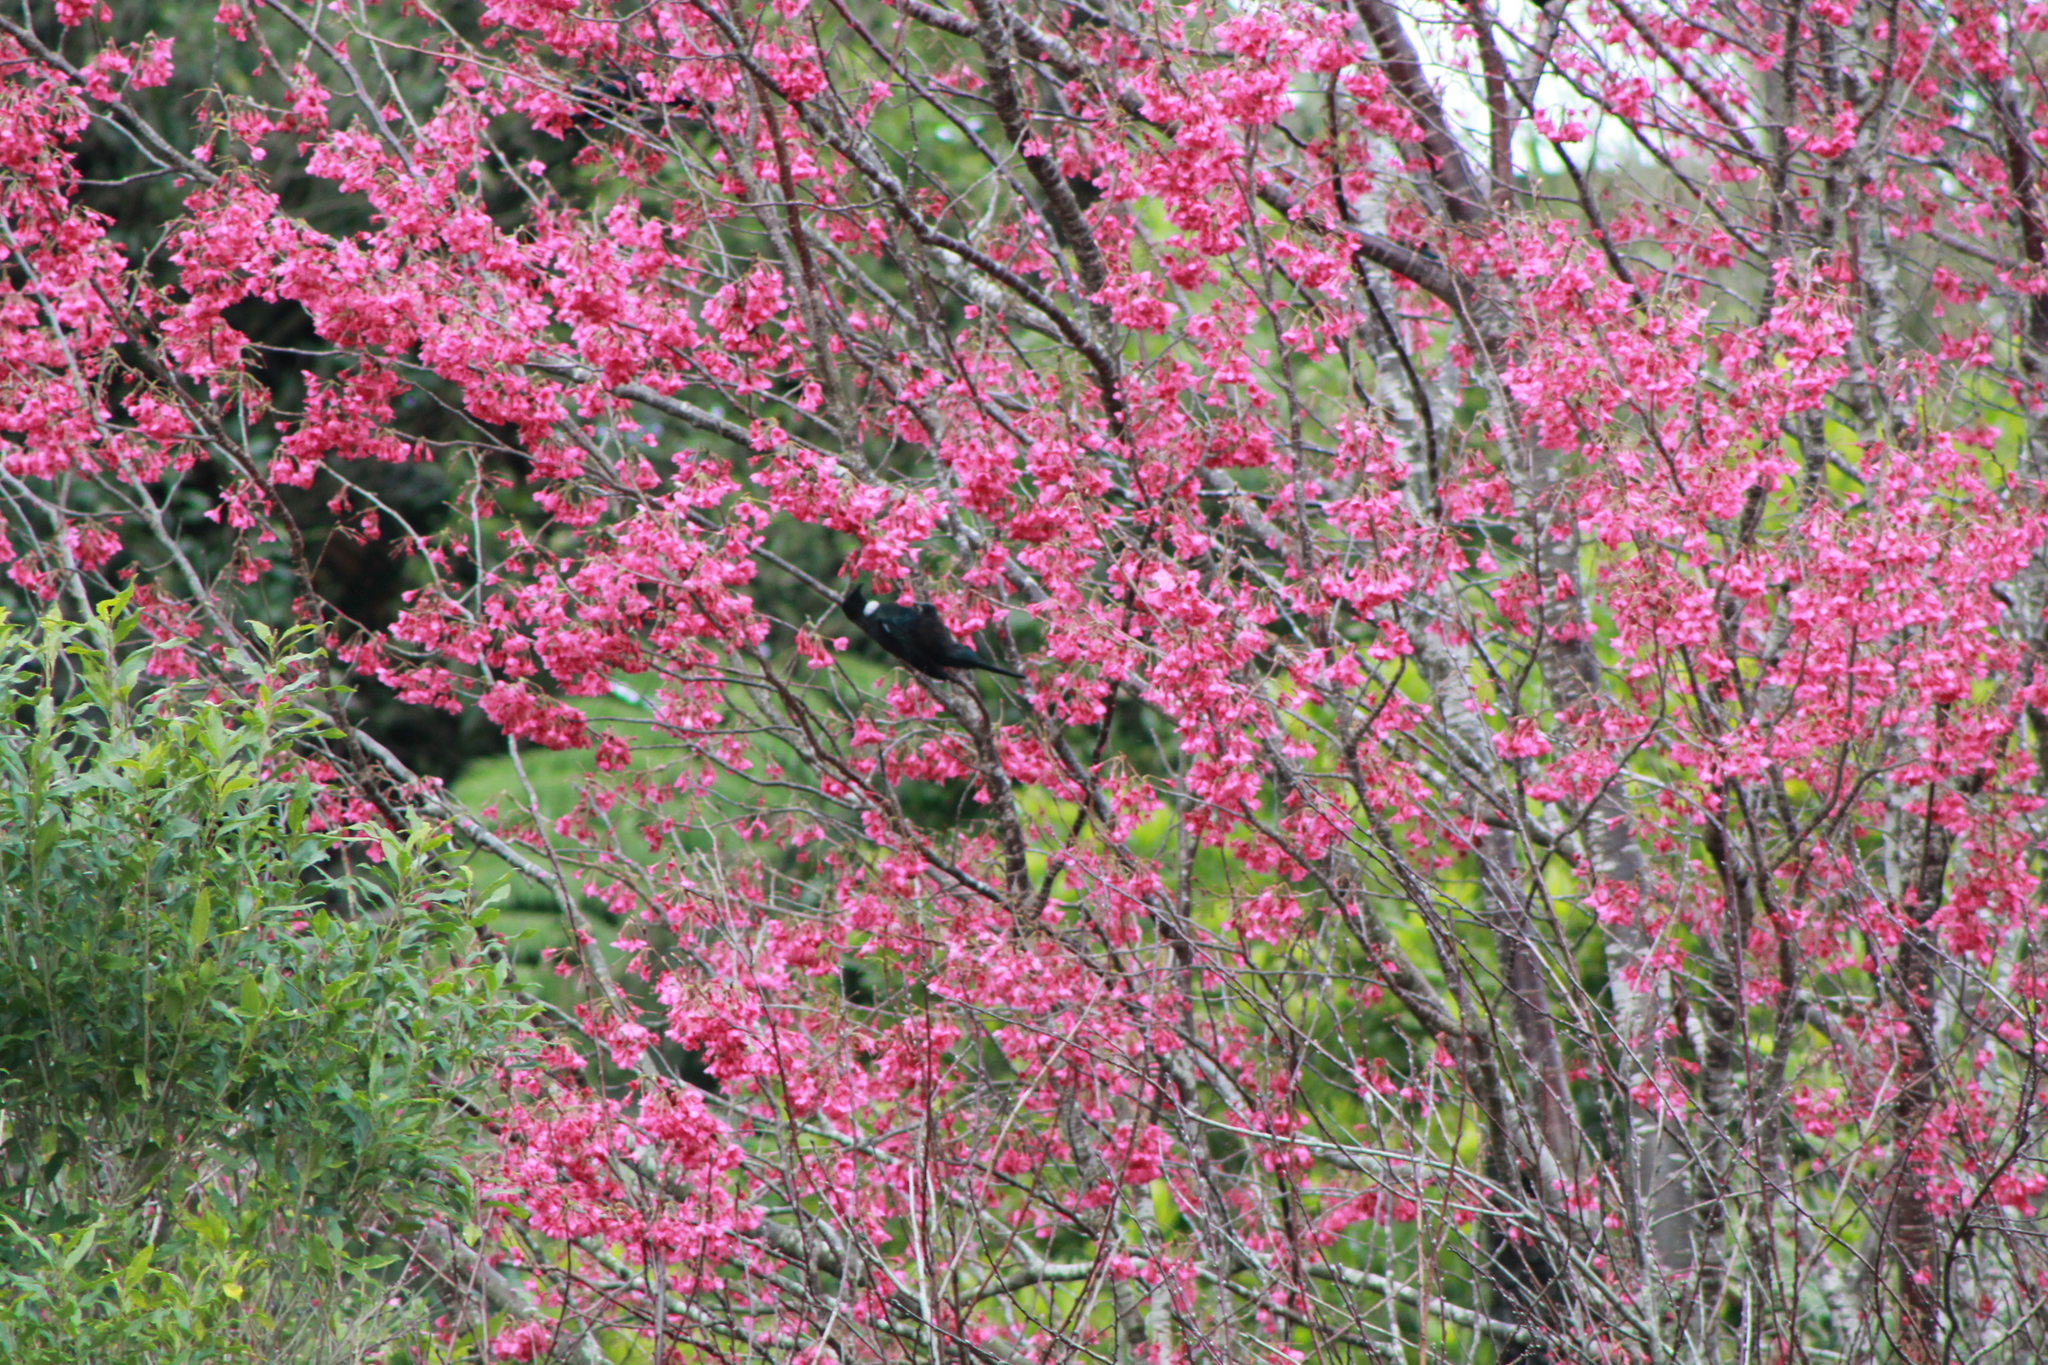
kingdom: Animalia
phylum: Chordata
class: Aves
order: Passeriformes
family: Meliphagidae
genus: Prosthemadera
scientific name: Prosthemadera novaeseelandiae
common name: Tui
